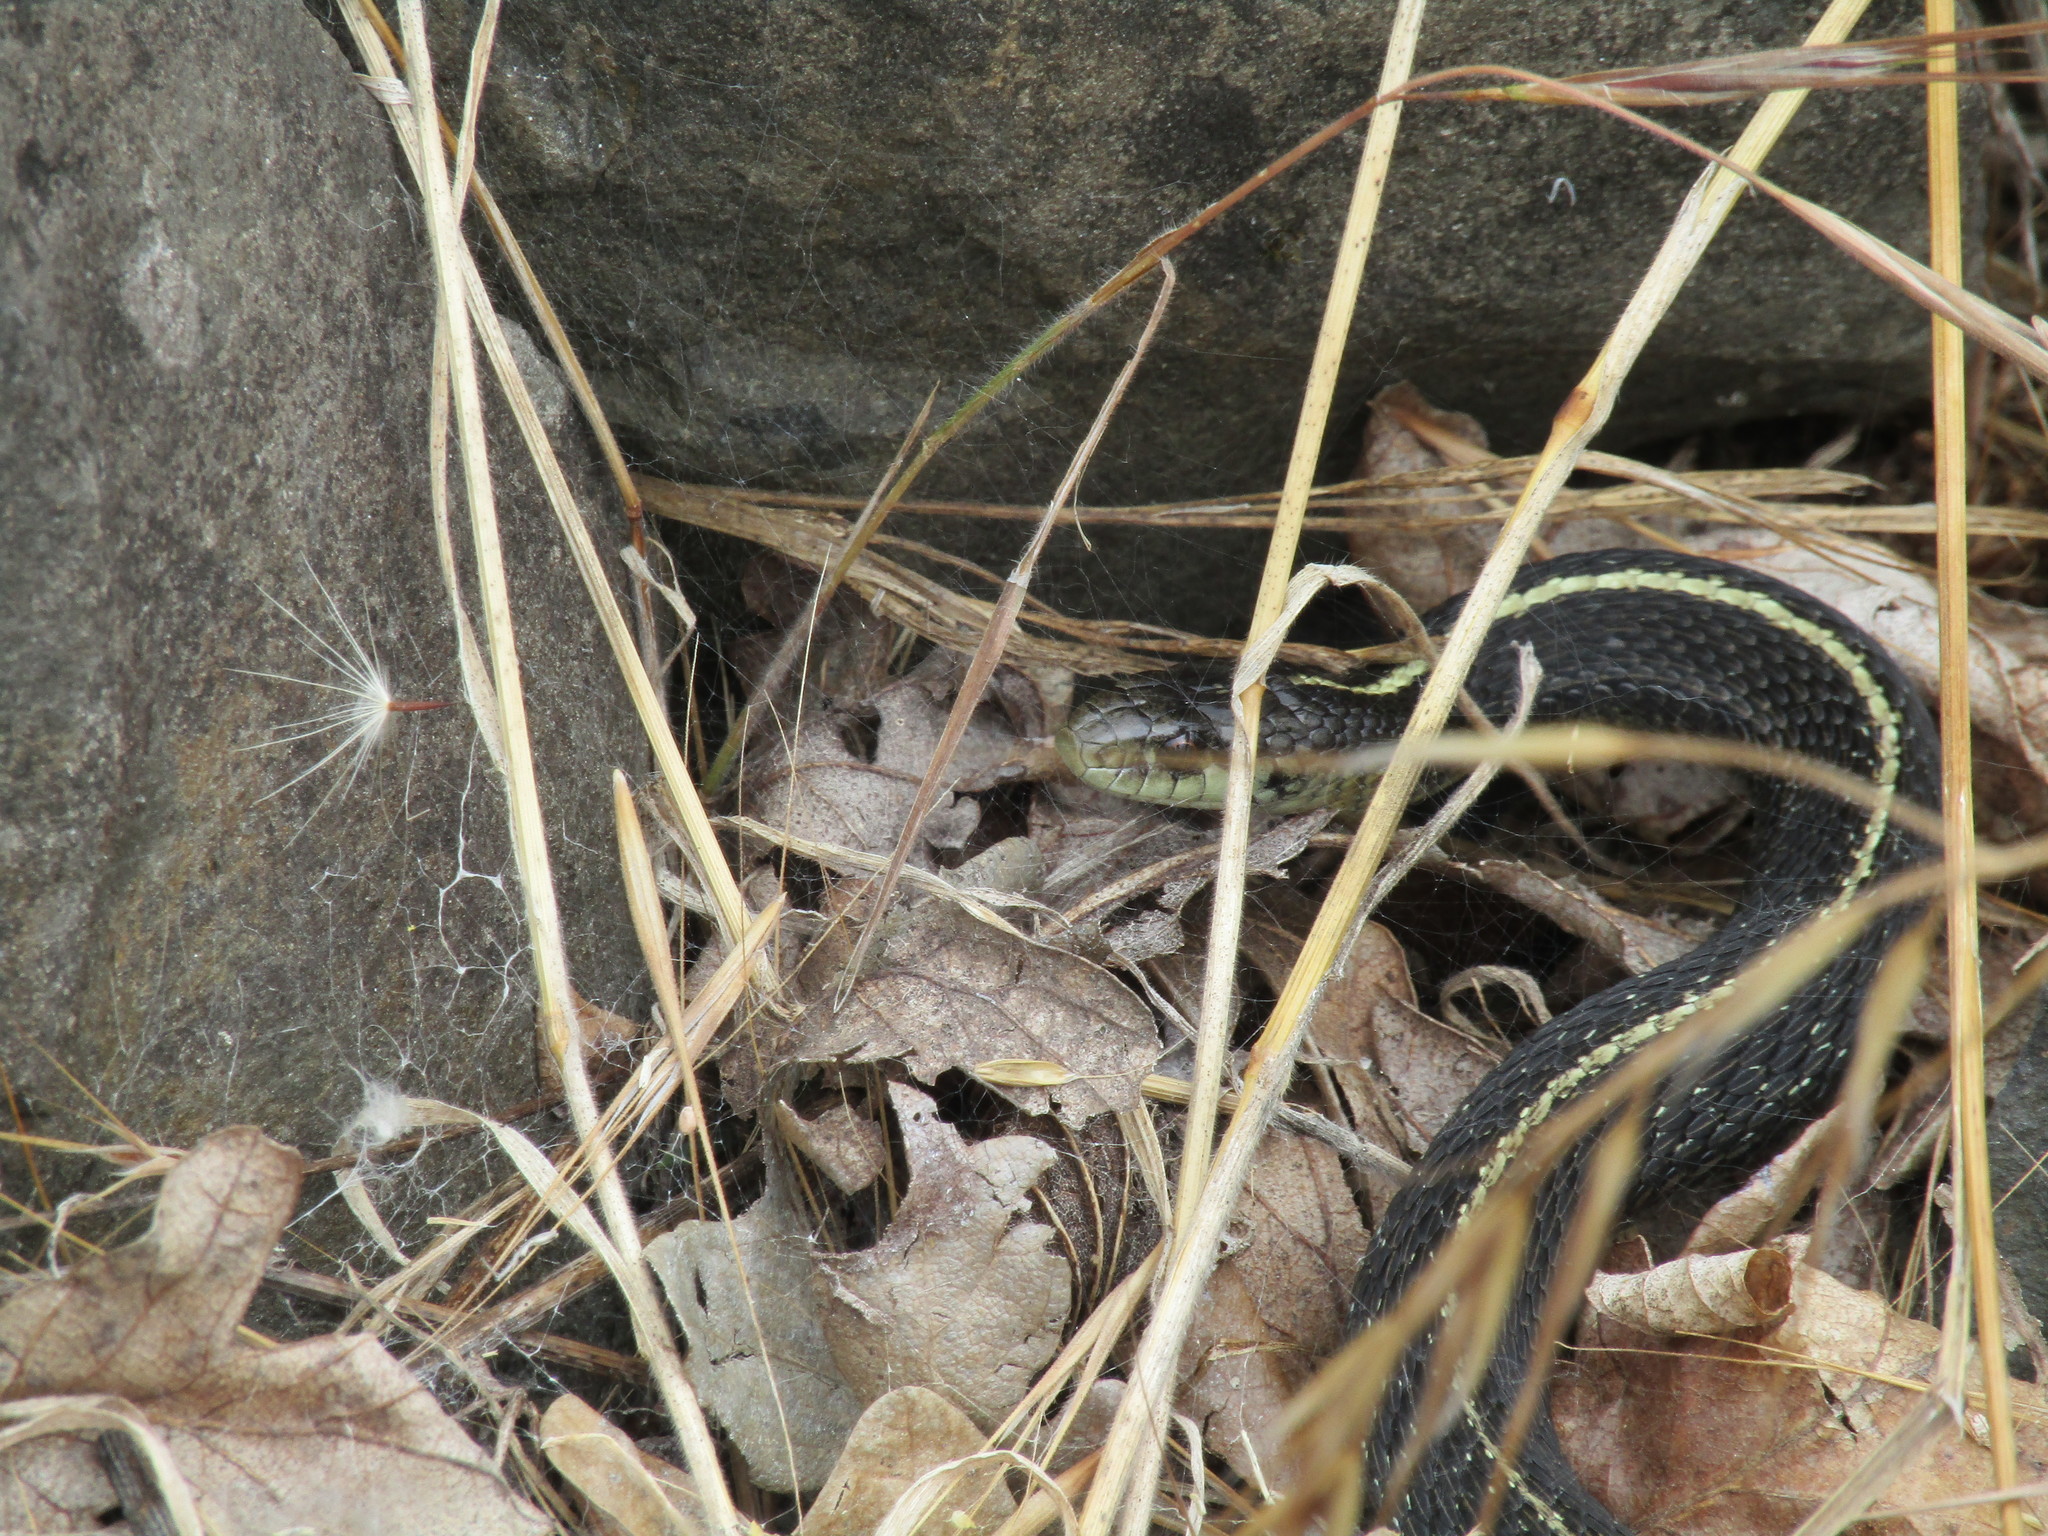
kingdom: Animalia
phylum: Chordata
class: Squamata
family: Colubridae
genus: Thamnophis
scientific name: Thamnophis ordinoides
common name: Northwestern garter snake
